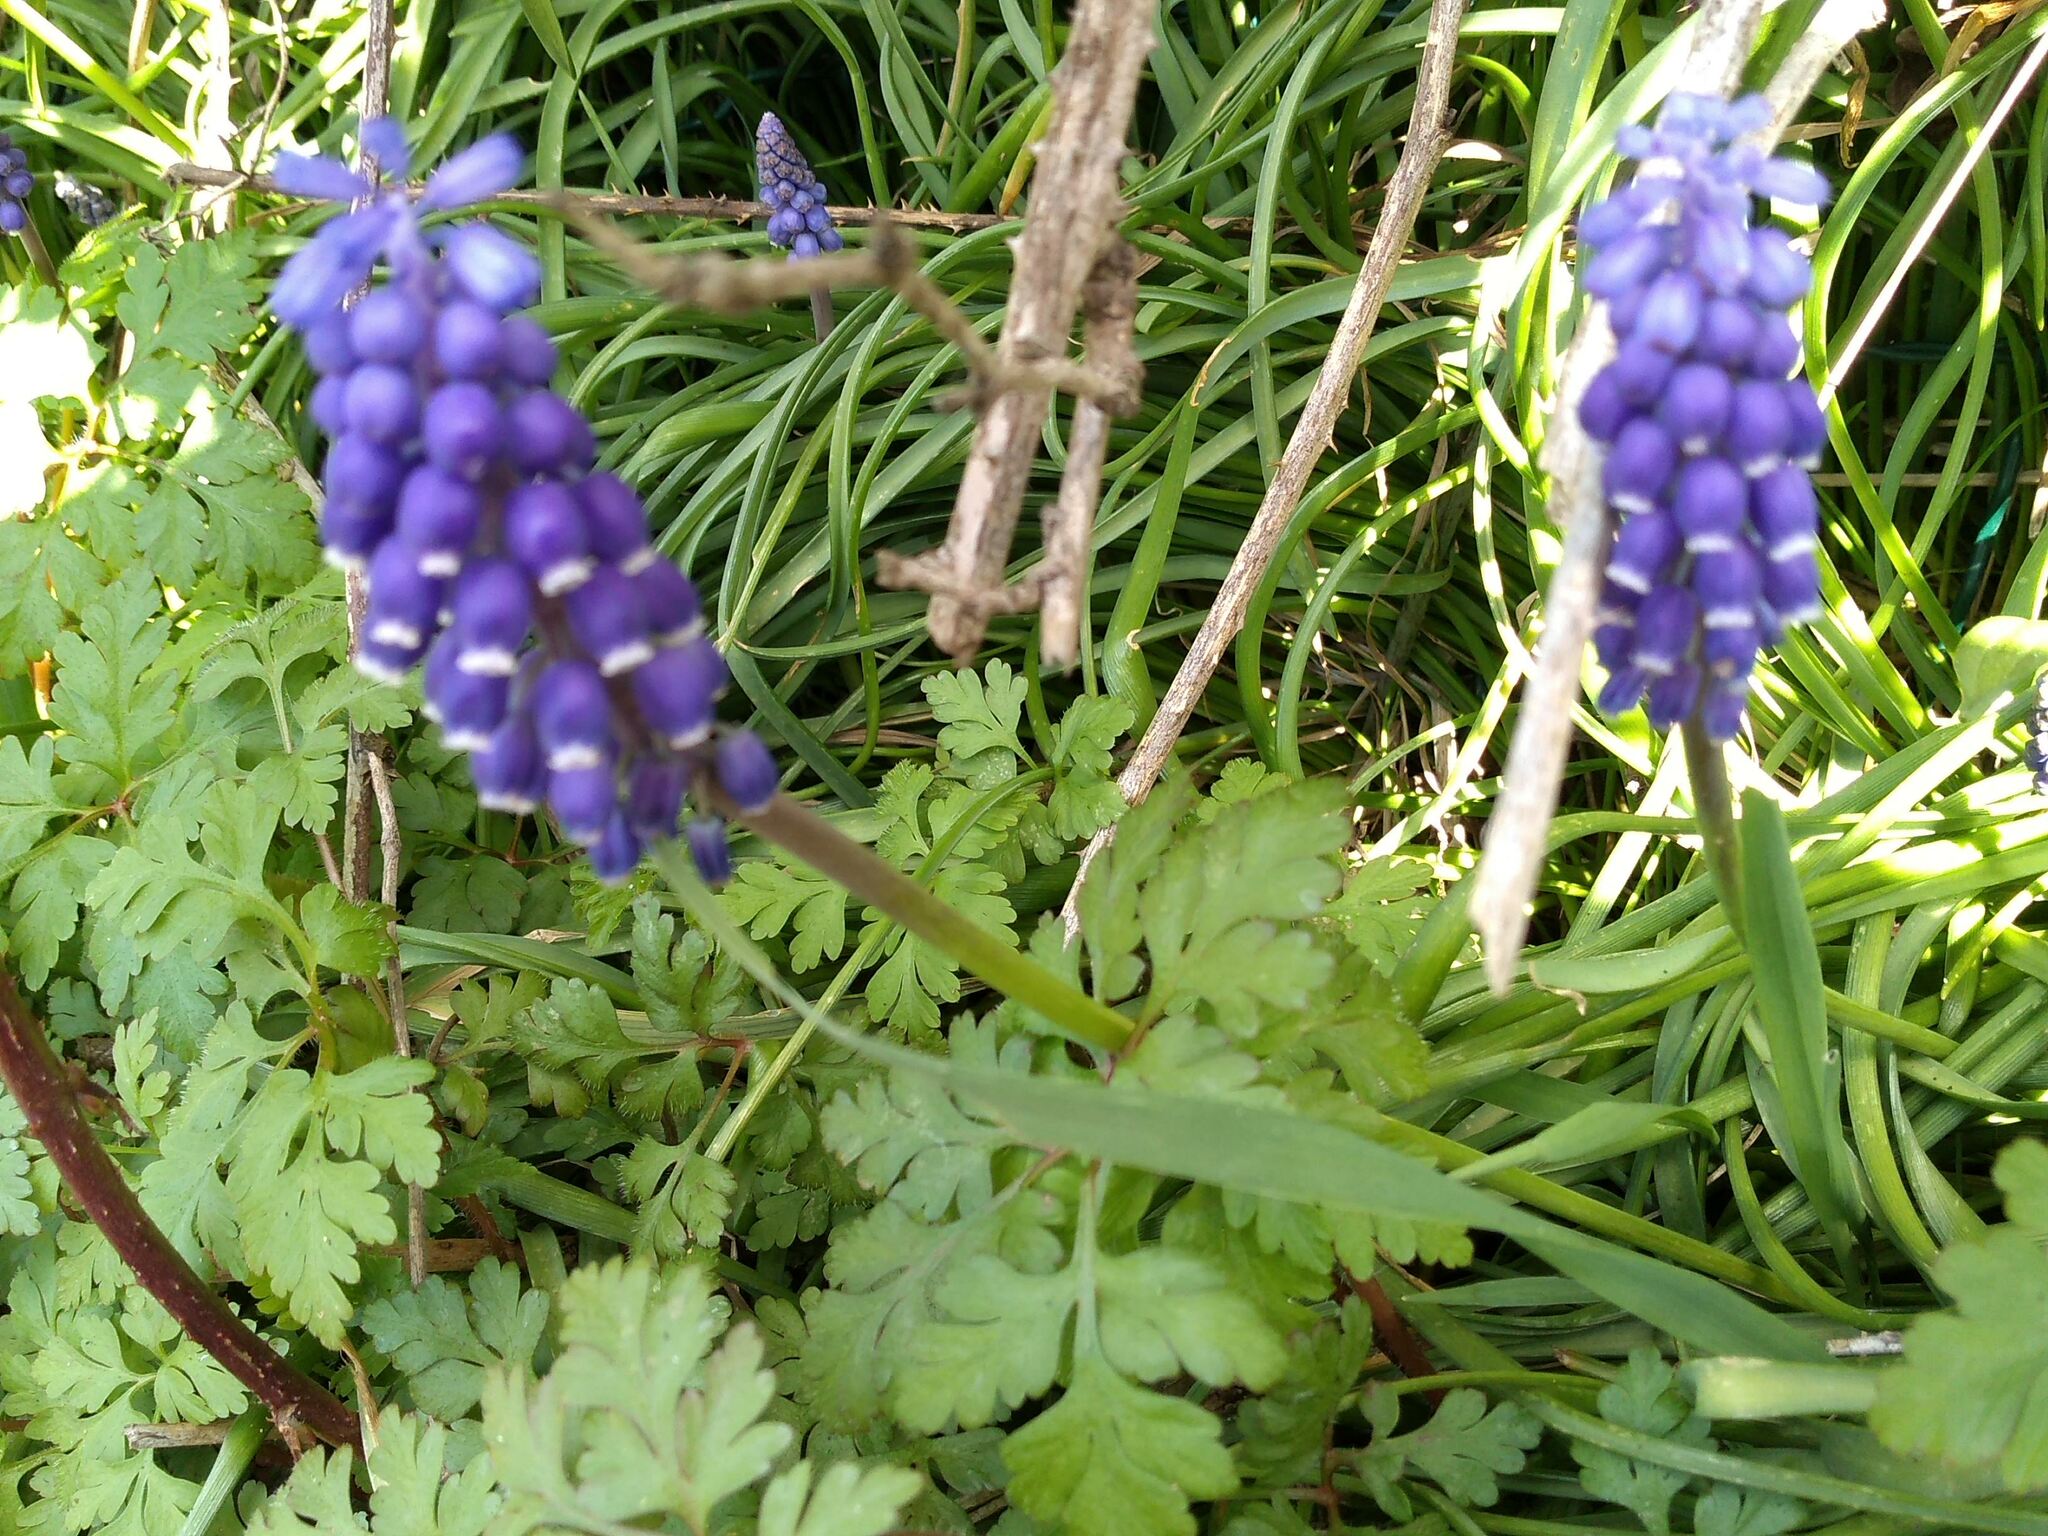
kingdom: Plantae
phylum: Tracheophyta
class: Liliopsida
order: Asparagales
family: Asparagaceae
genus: Muscari
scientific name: Muscari armeniacum
